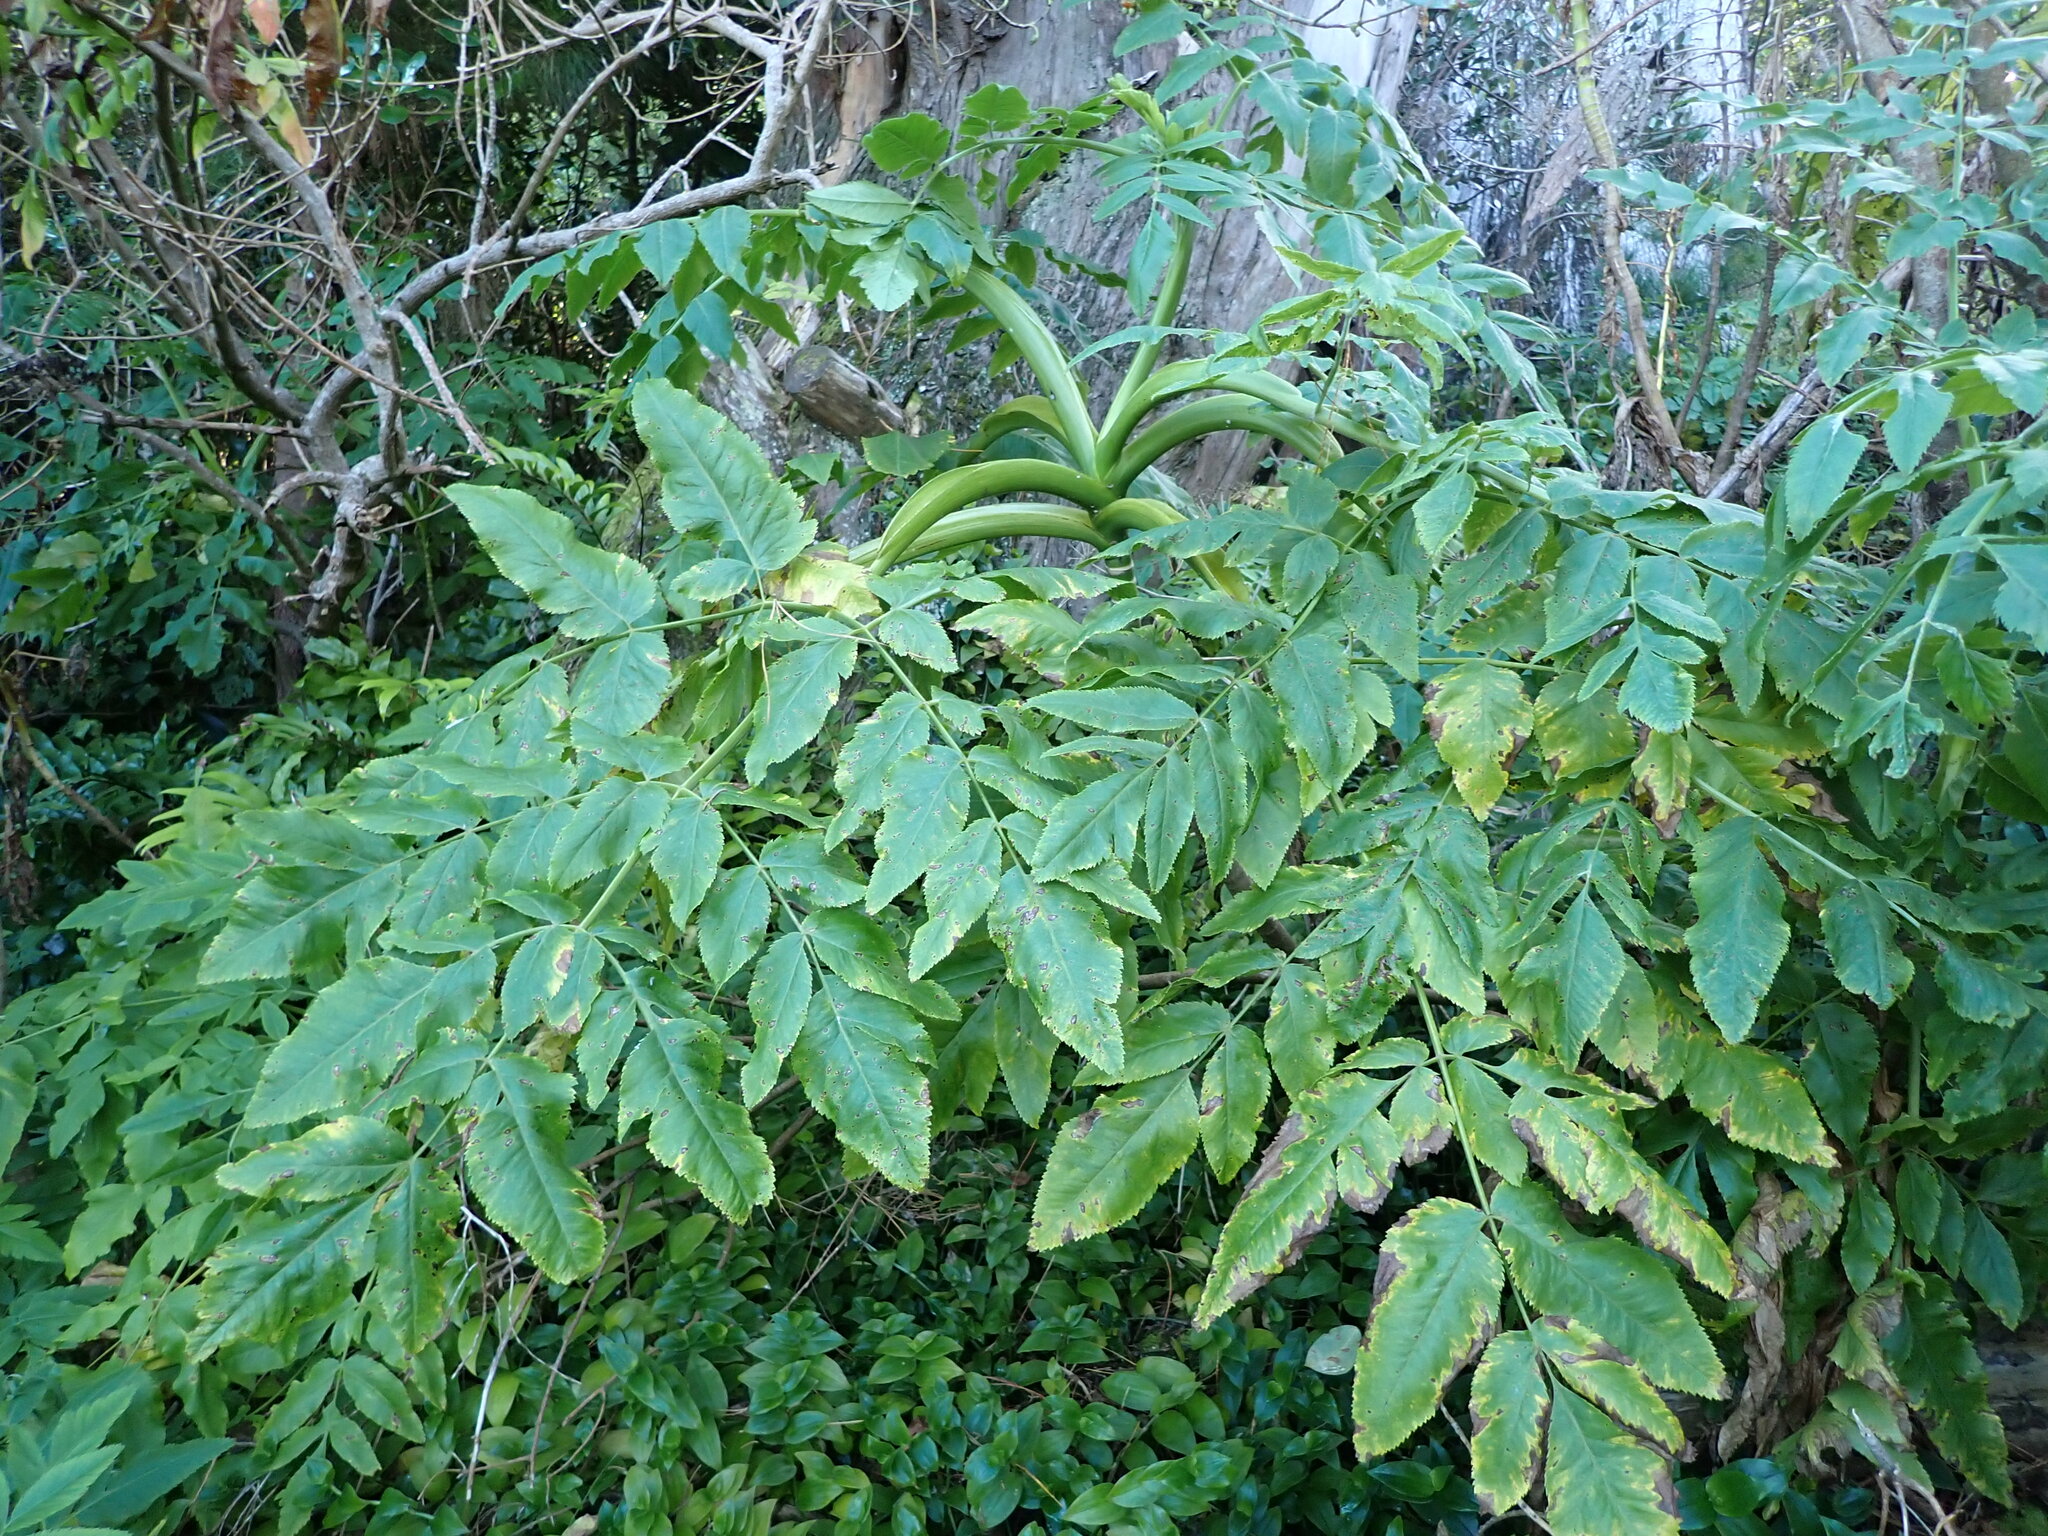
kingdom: Plantae
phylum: Tracheophyta
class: Magnoliopsida
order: Apiales
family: Apiaceae
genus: Daucus
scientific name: Daucus decipiens
